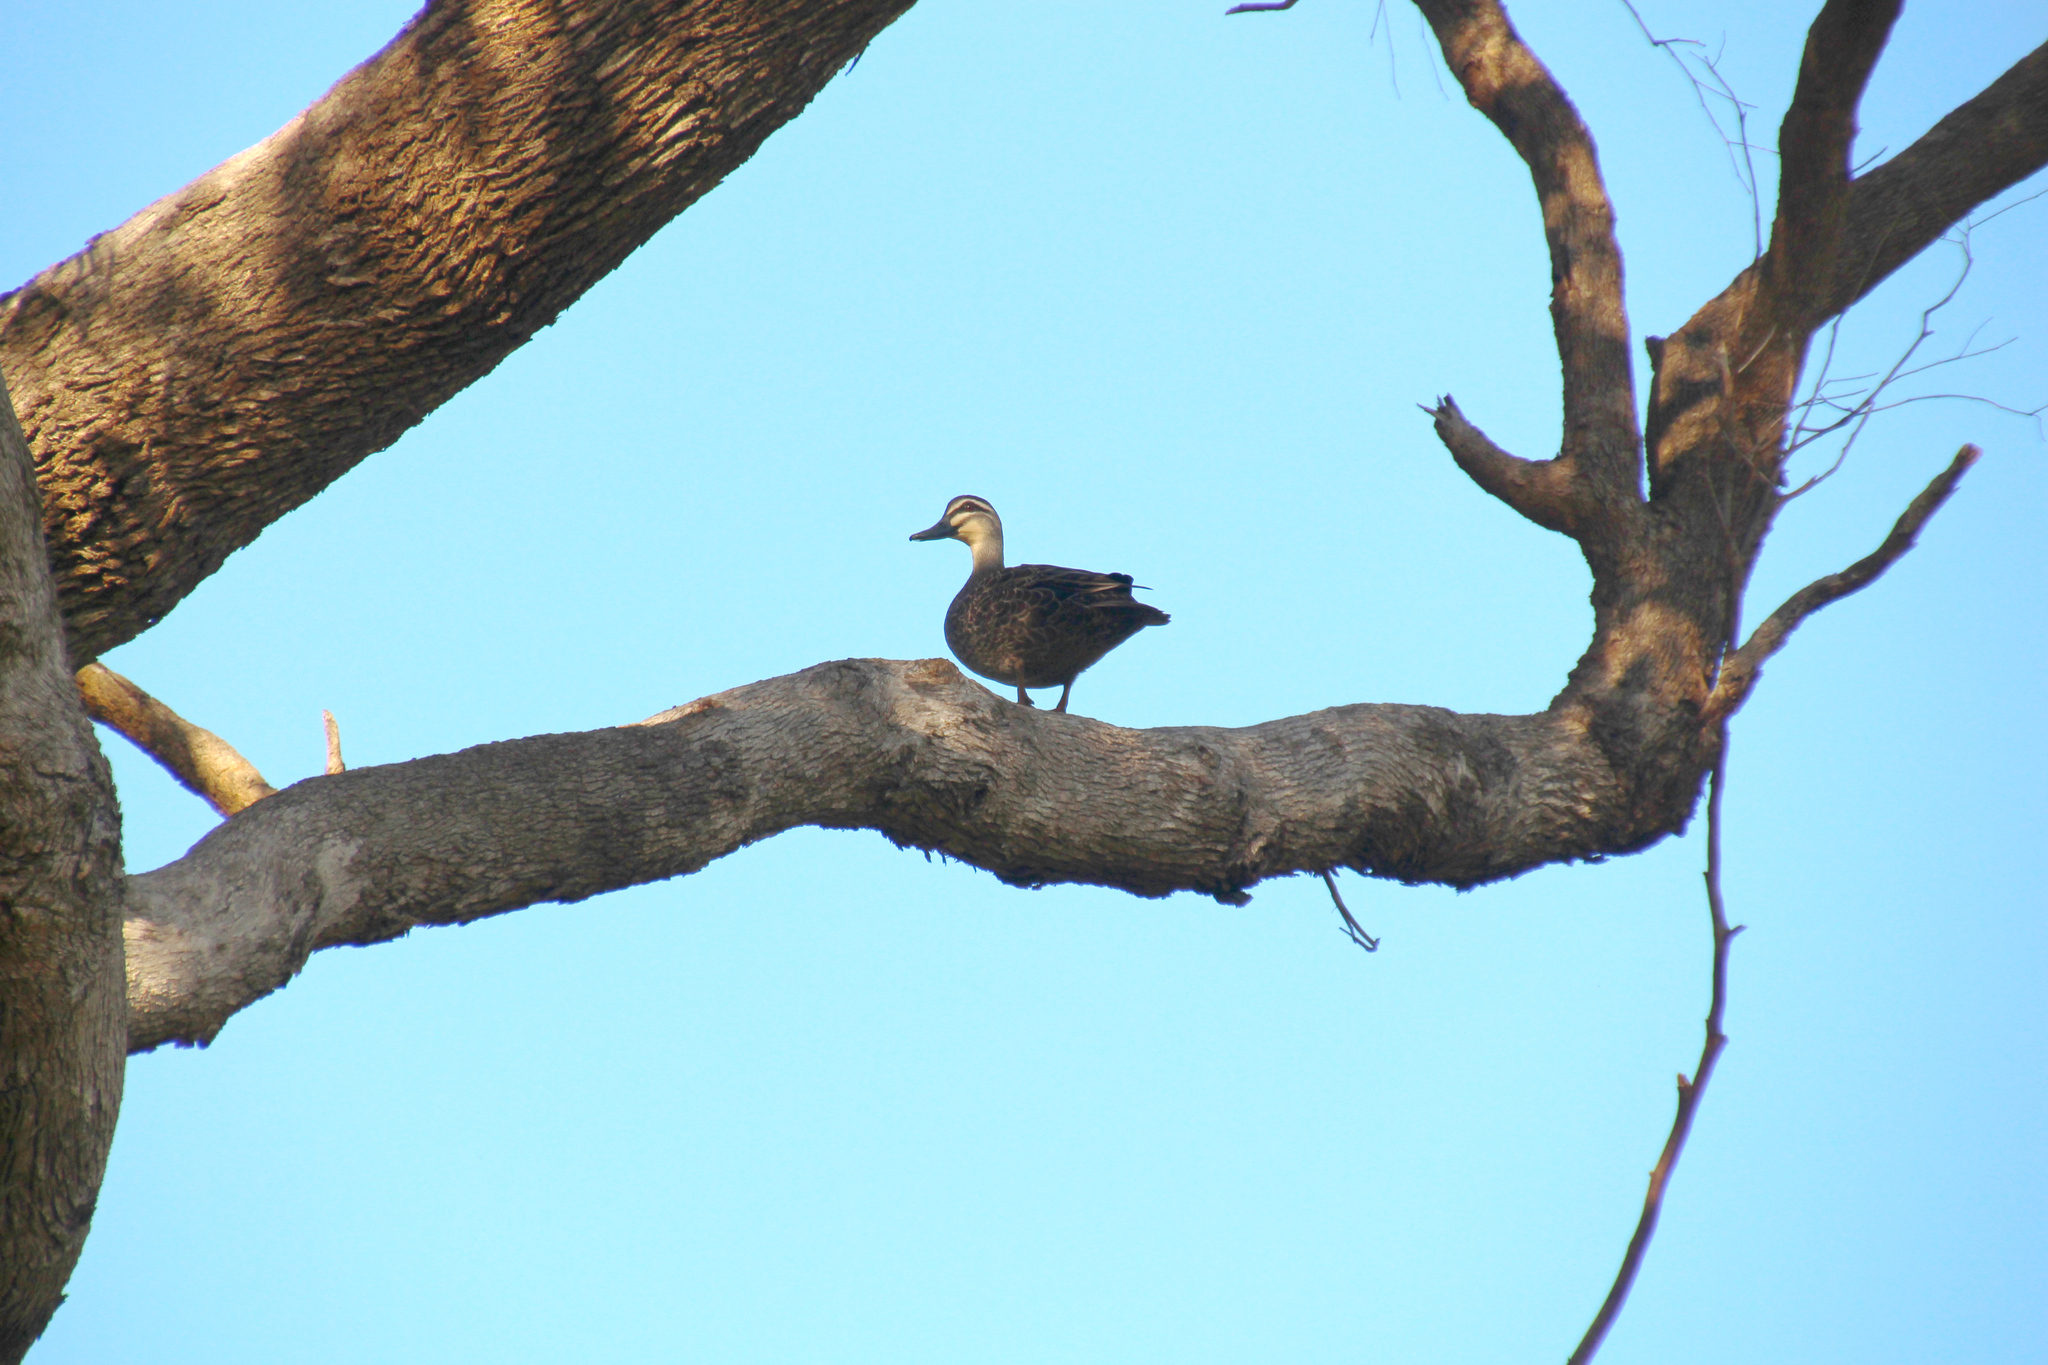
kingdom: Animalia
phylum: Chordata
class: Aves
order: Anseriformes
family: Anatidae
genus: Anas
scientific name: Anas superciliosa
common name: Pacific black duck
